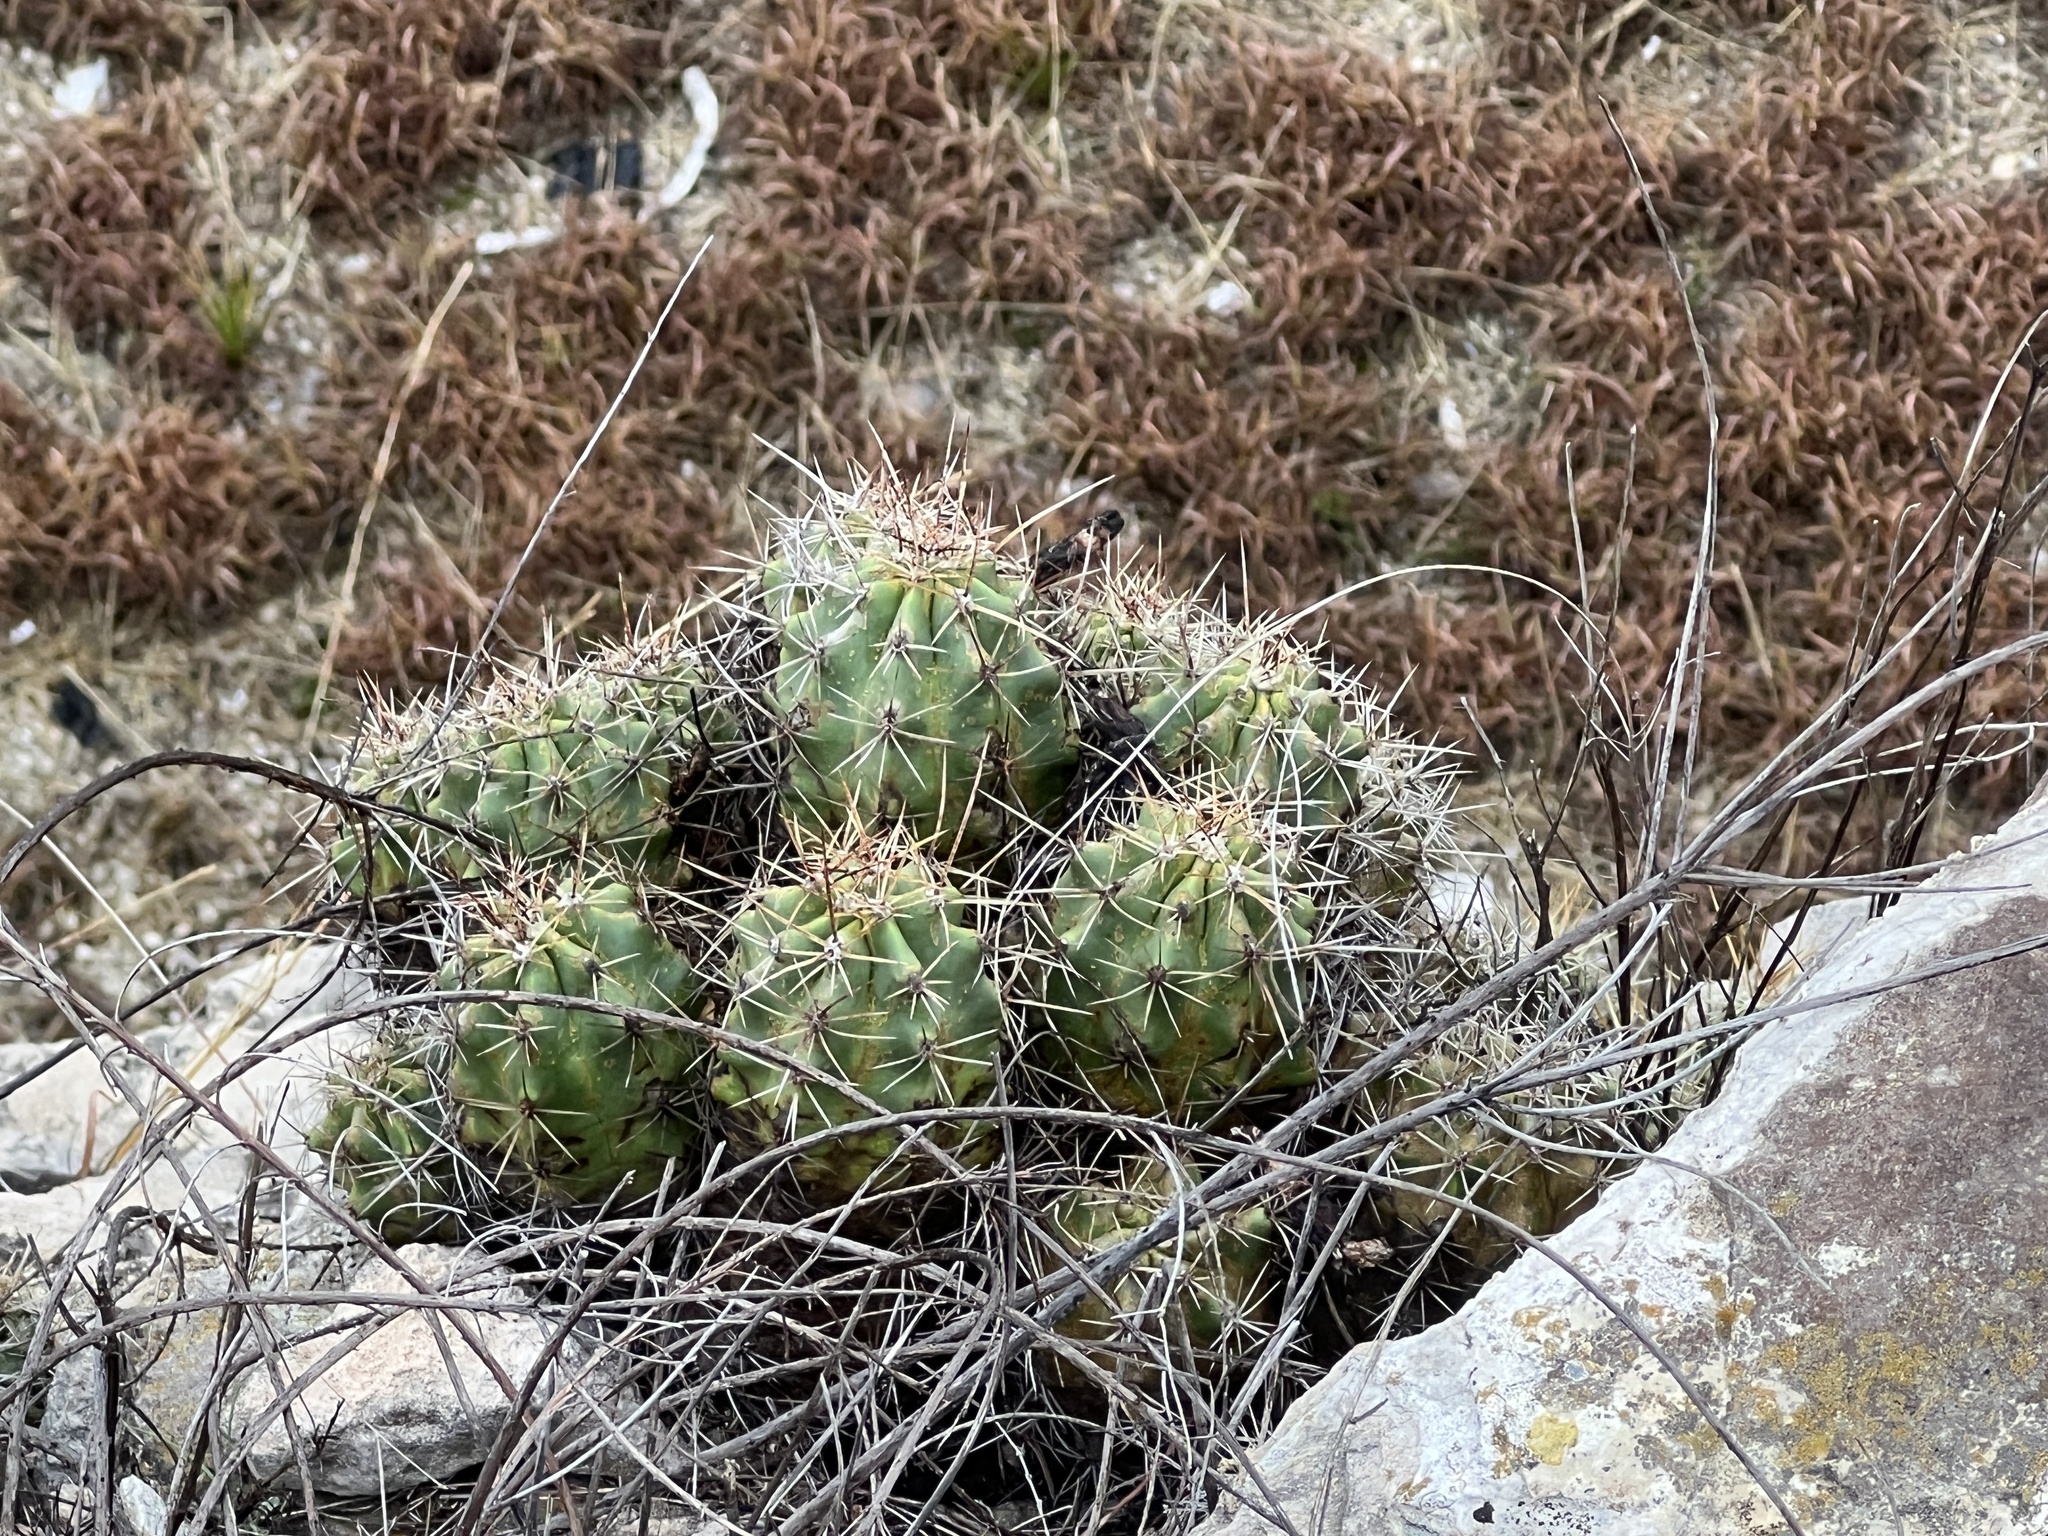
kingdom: Plantae
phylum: Tracheophyta
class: Magnoliopsida
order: Caryophyllales
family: Cactaceae
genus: Echinocereus
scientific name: Echinocereus coccineus
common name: Scarlet hedgehog cactus
